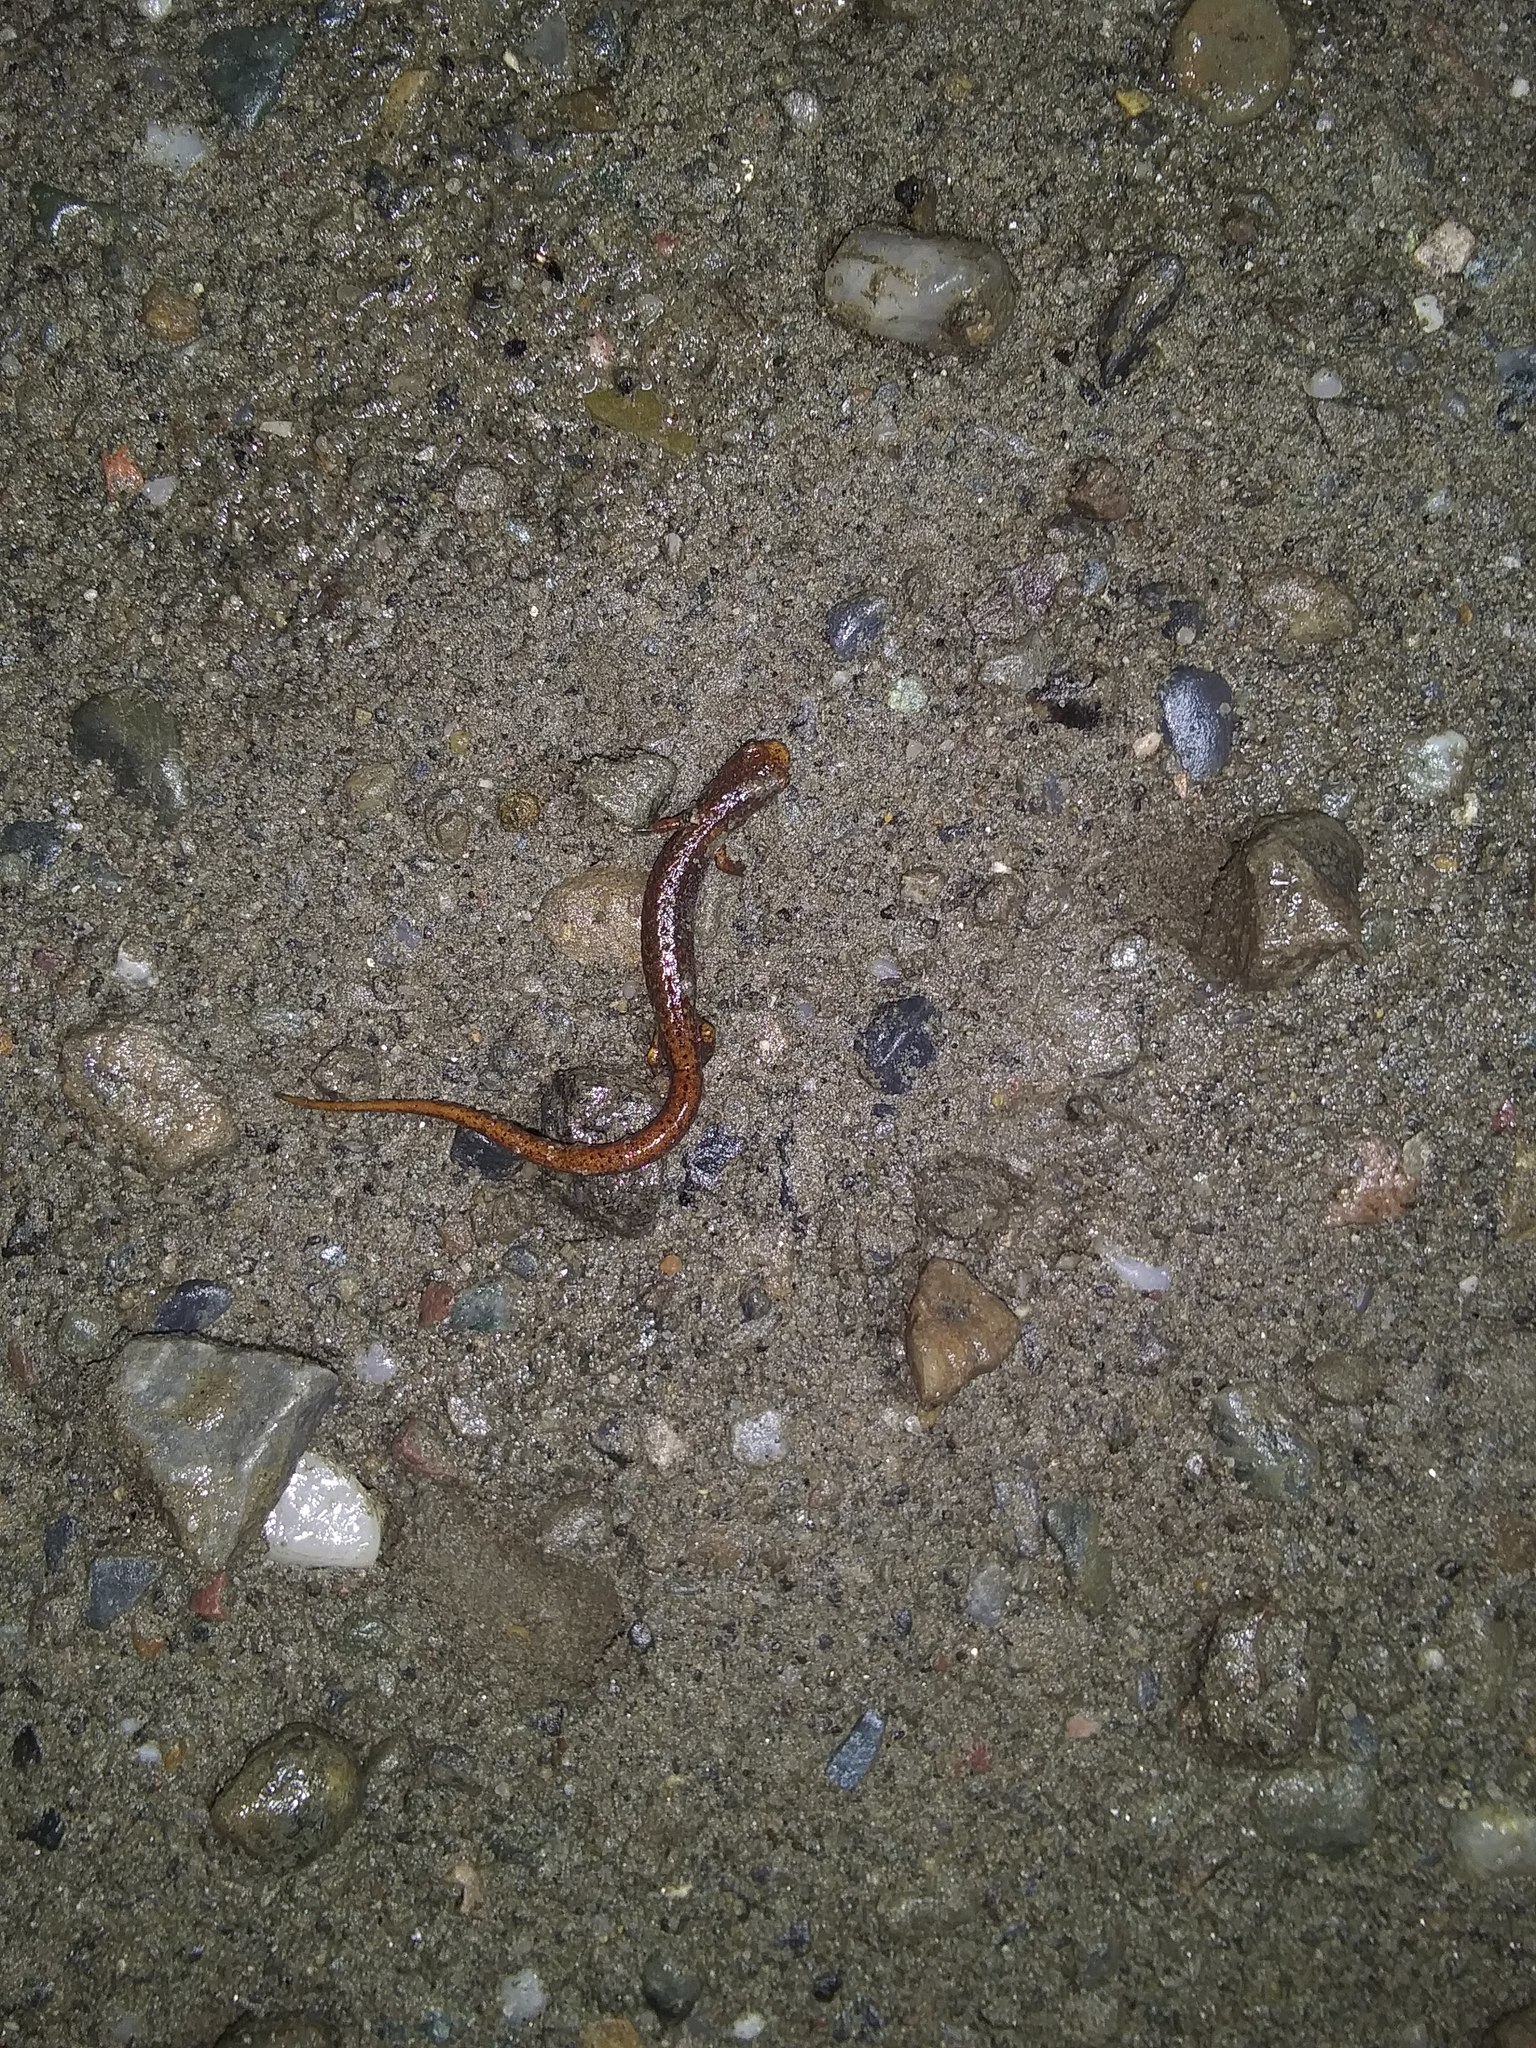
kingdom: Animalia
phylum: Chordata
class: Amphibia
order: Caudata
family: Plethodontidae
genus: Hemidactylium
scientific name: Hemidactylium scutatum
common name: Four-toed salamander
